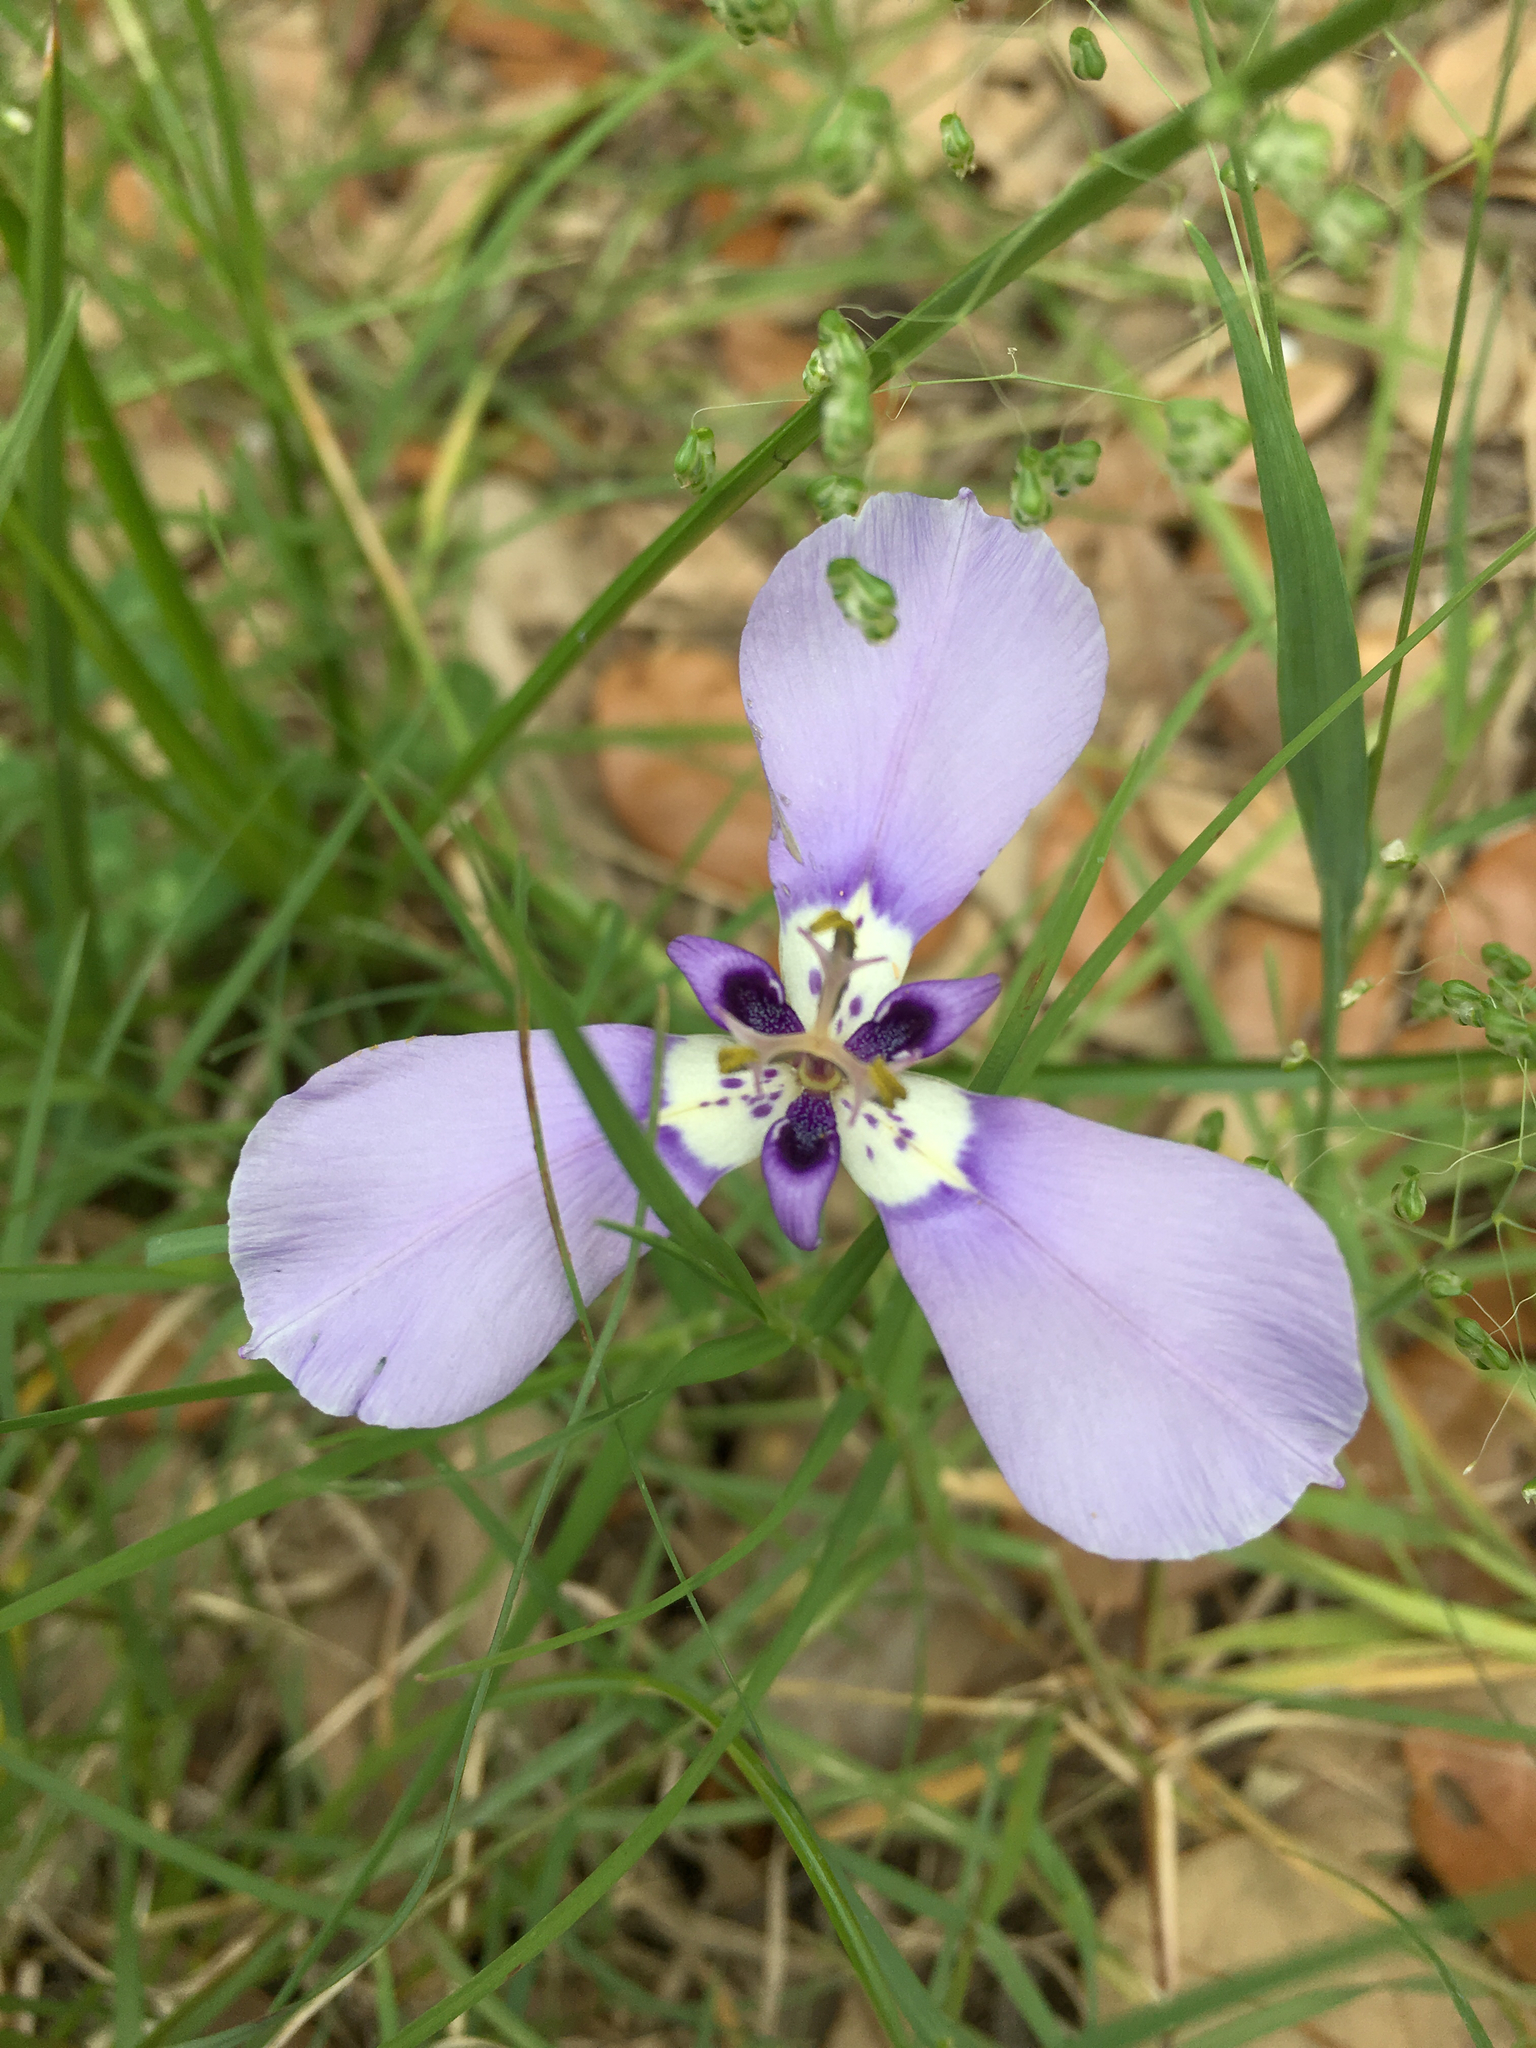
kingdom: Plantae
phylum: Tracheophyta
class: Liliopsida
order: Asparagales
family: Iridaceae
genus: Herbertia
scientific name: Herbertia lahue
